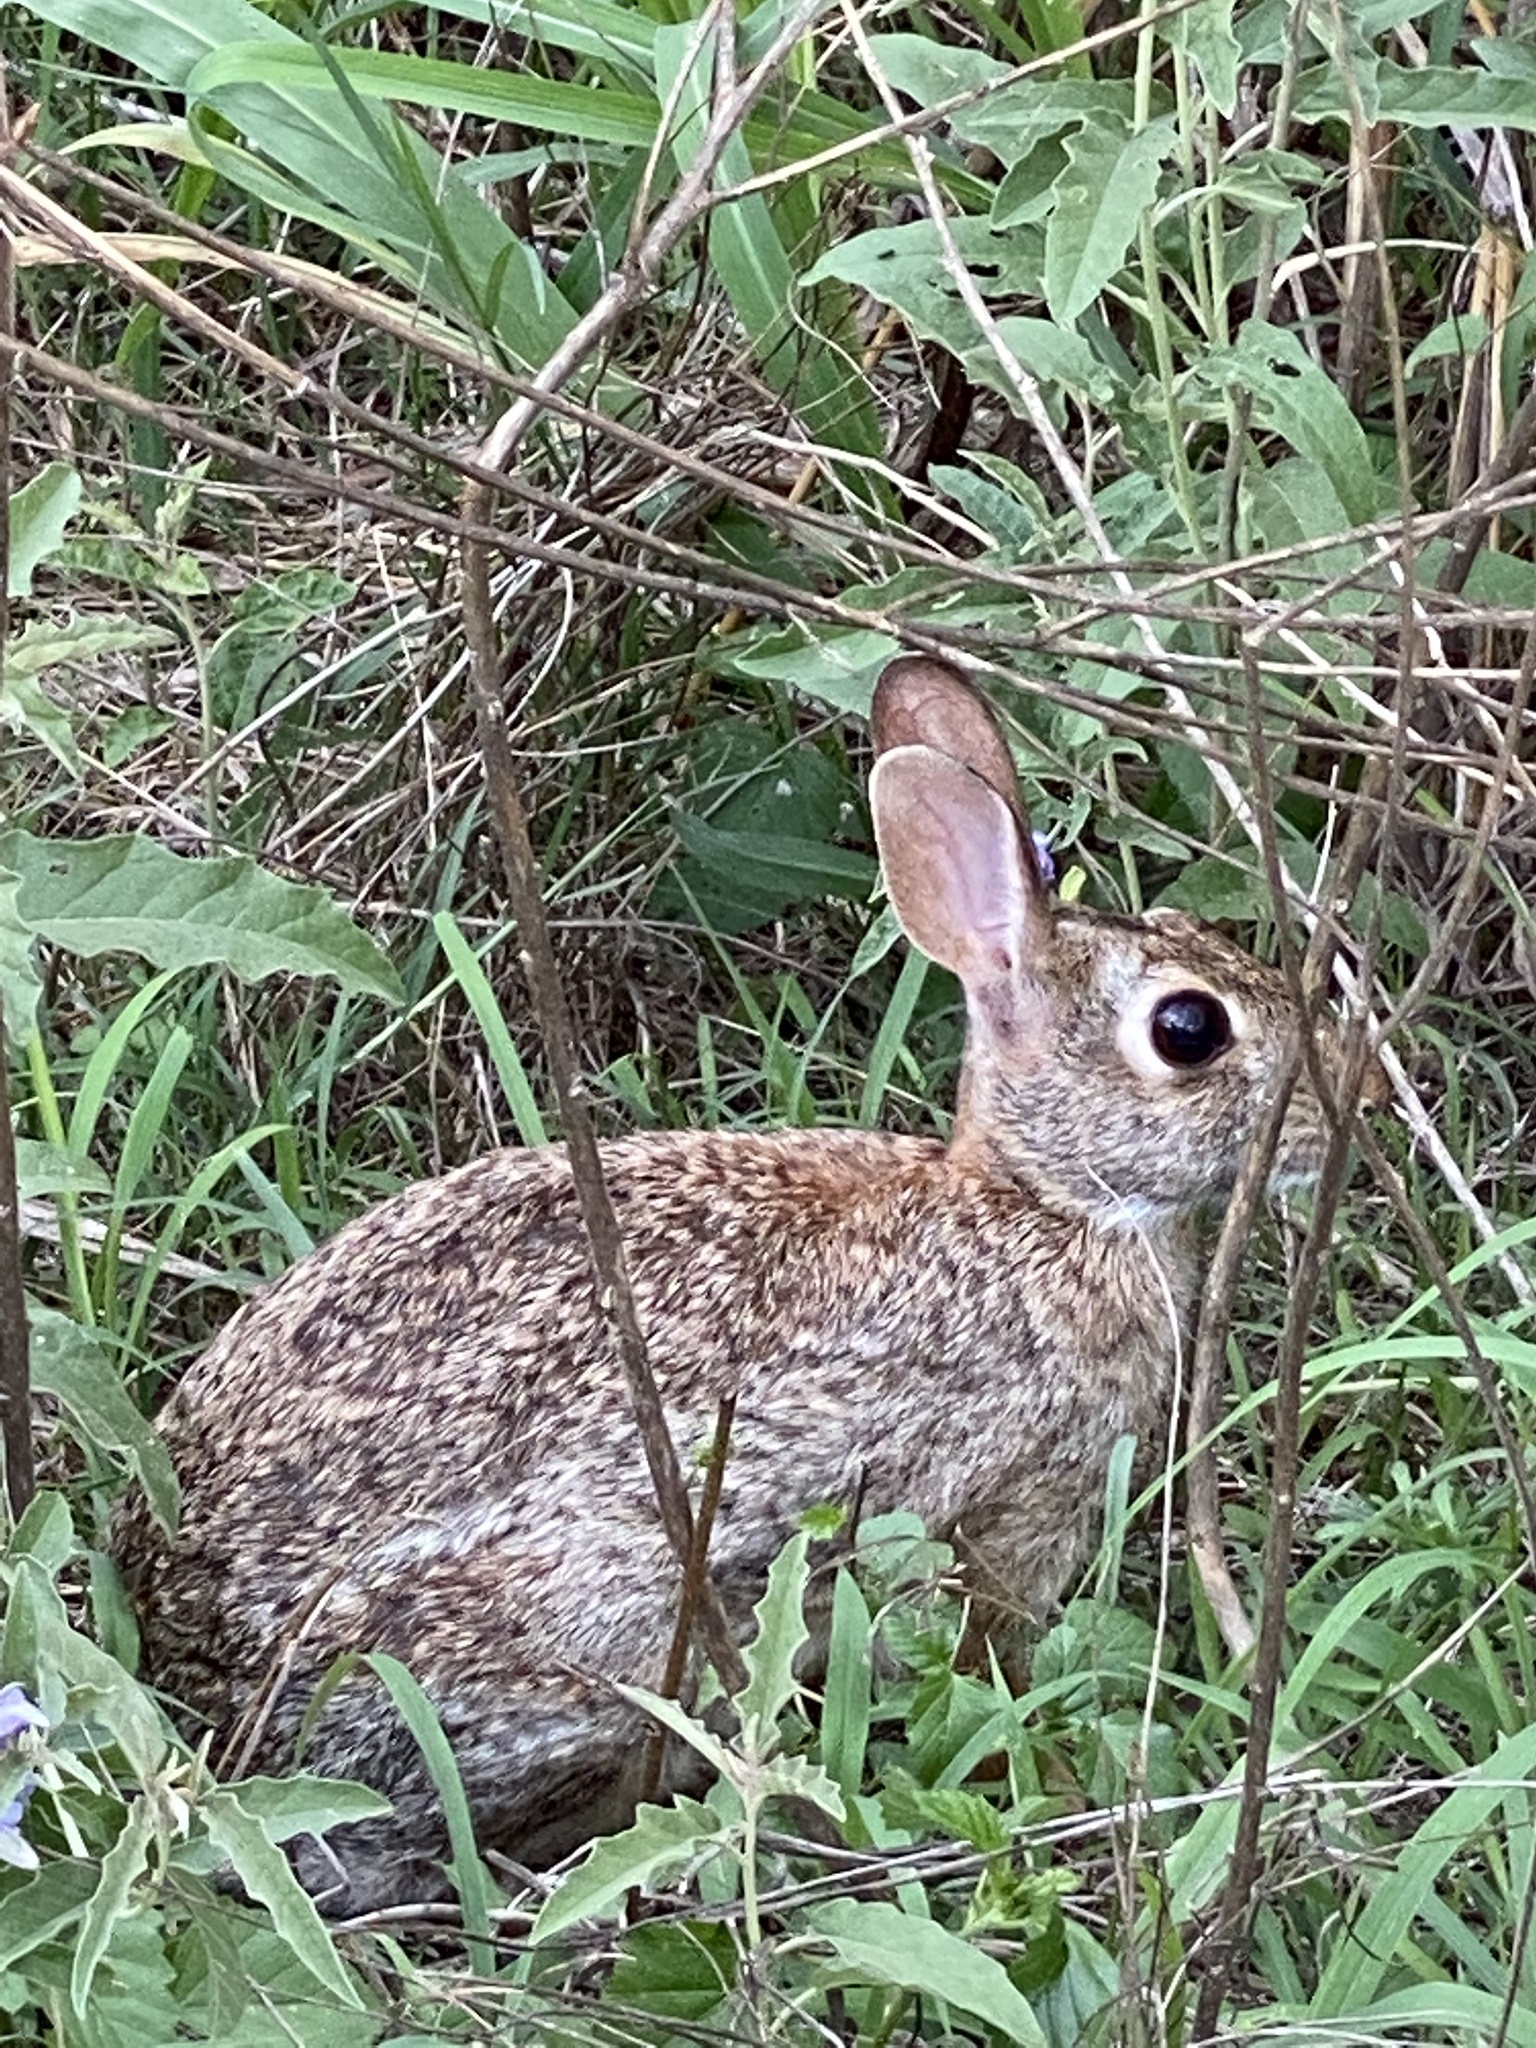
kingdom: Animalia
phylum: Chordata
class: Mammalia
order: Lagomorpha
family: Leporidae
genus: Sylvilagus
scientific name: Sylvilagus floridanus
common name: Eastern cottontail
